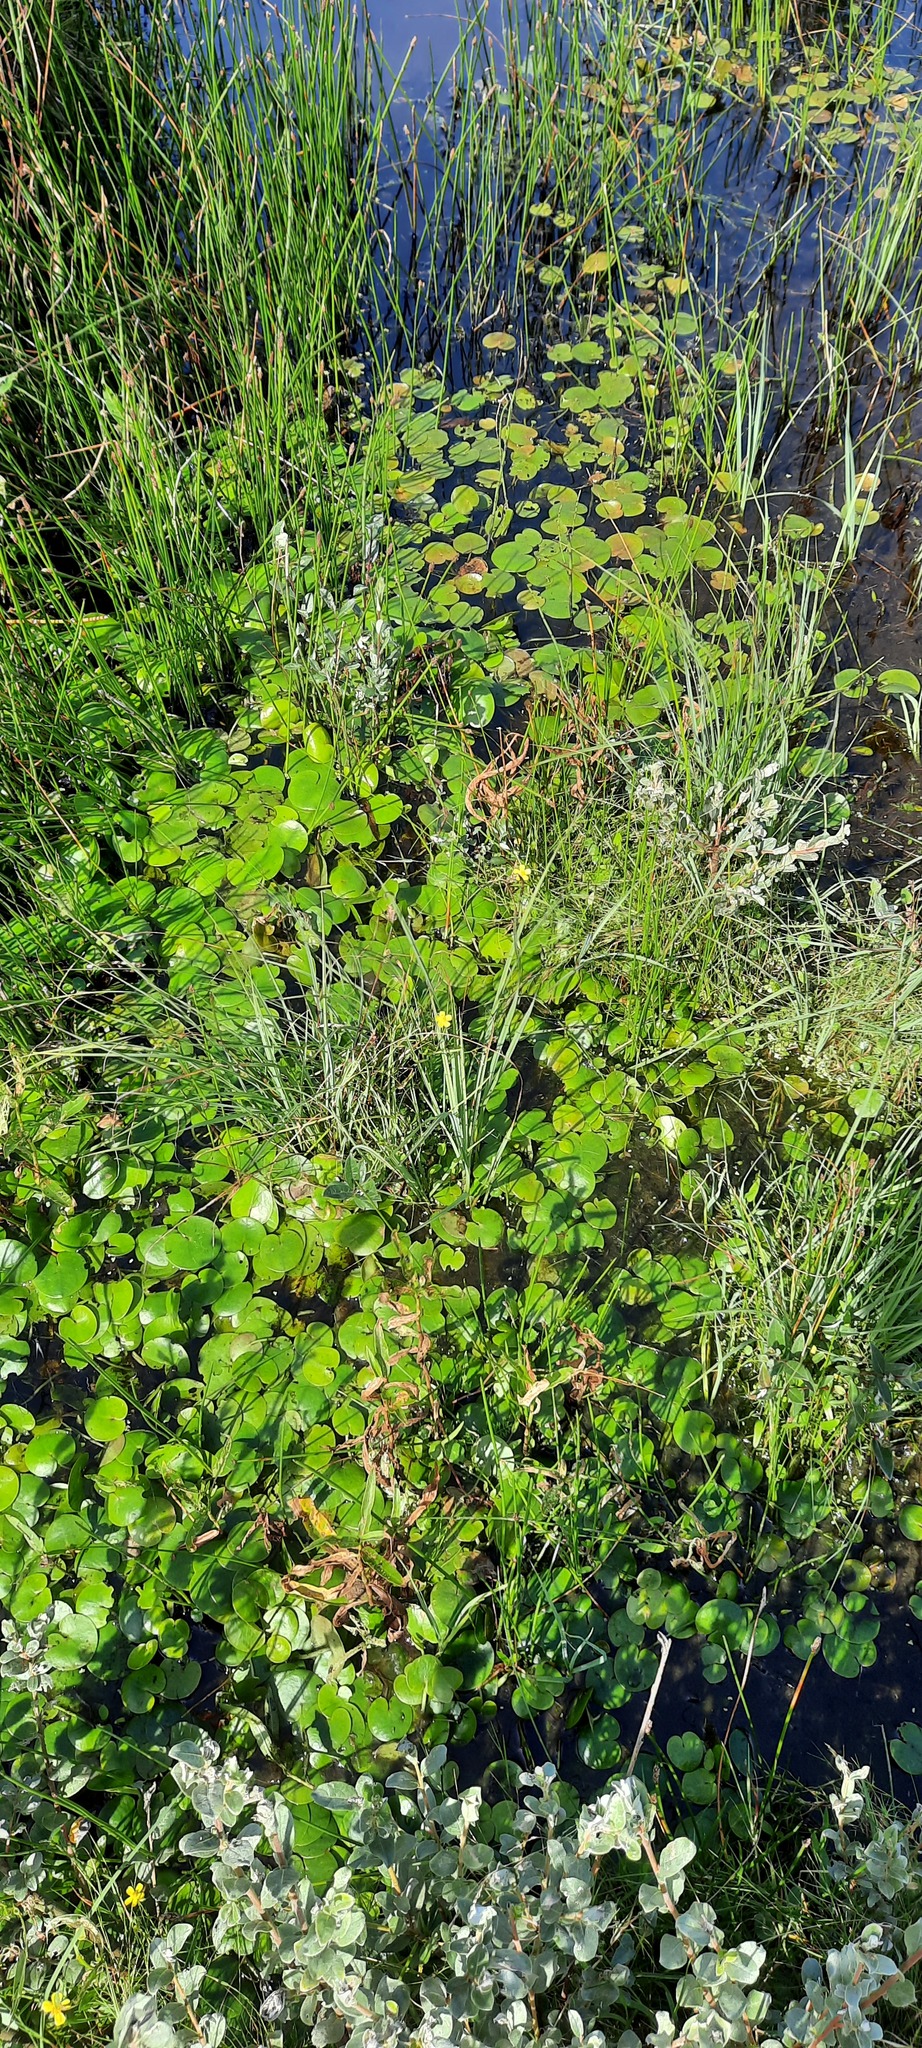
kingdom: Plantae
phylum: Tracheophyta
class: Liliopsida
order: Alismatales
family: Hydrocharitaceae
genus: Hydrocharis
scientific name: Hydrocharis morsus-ranae
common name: Frogbit
